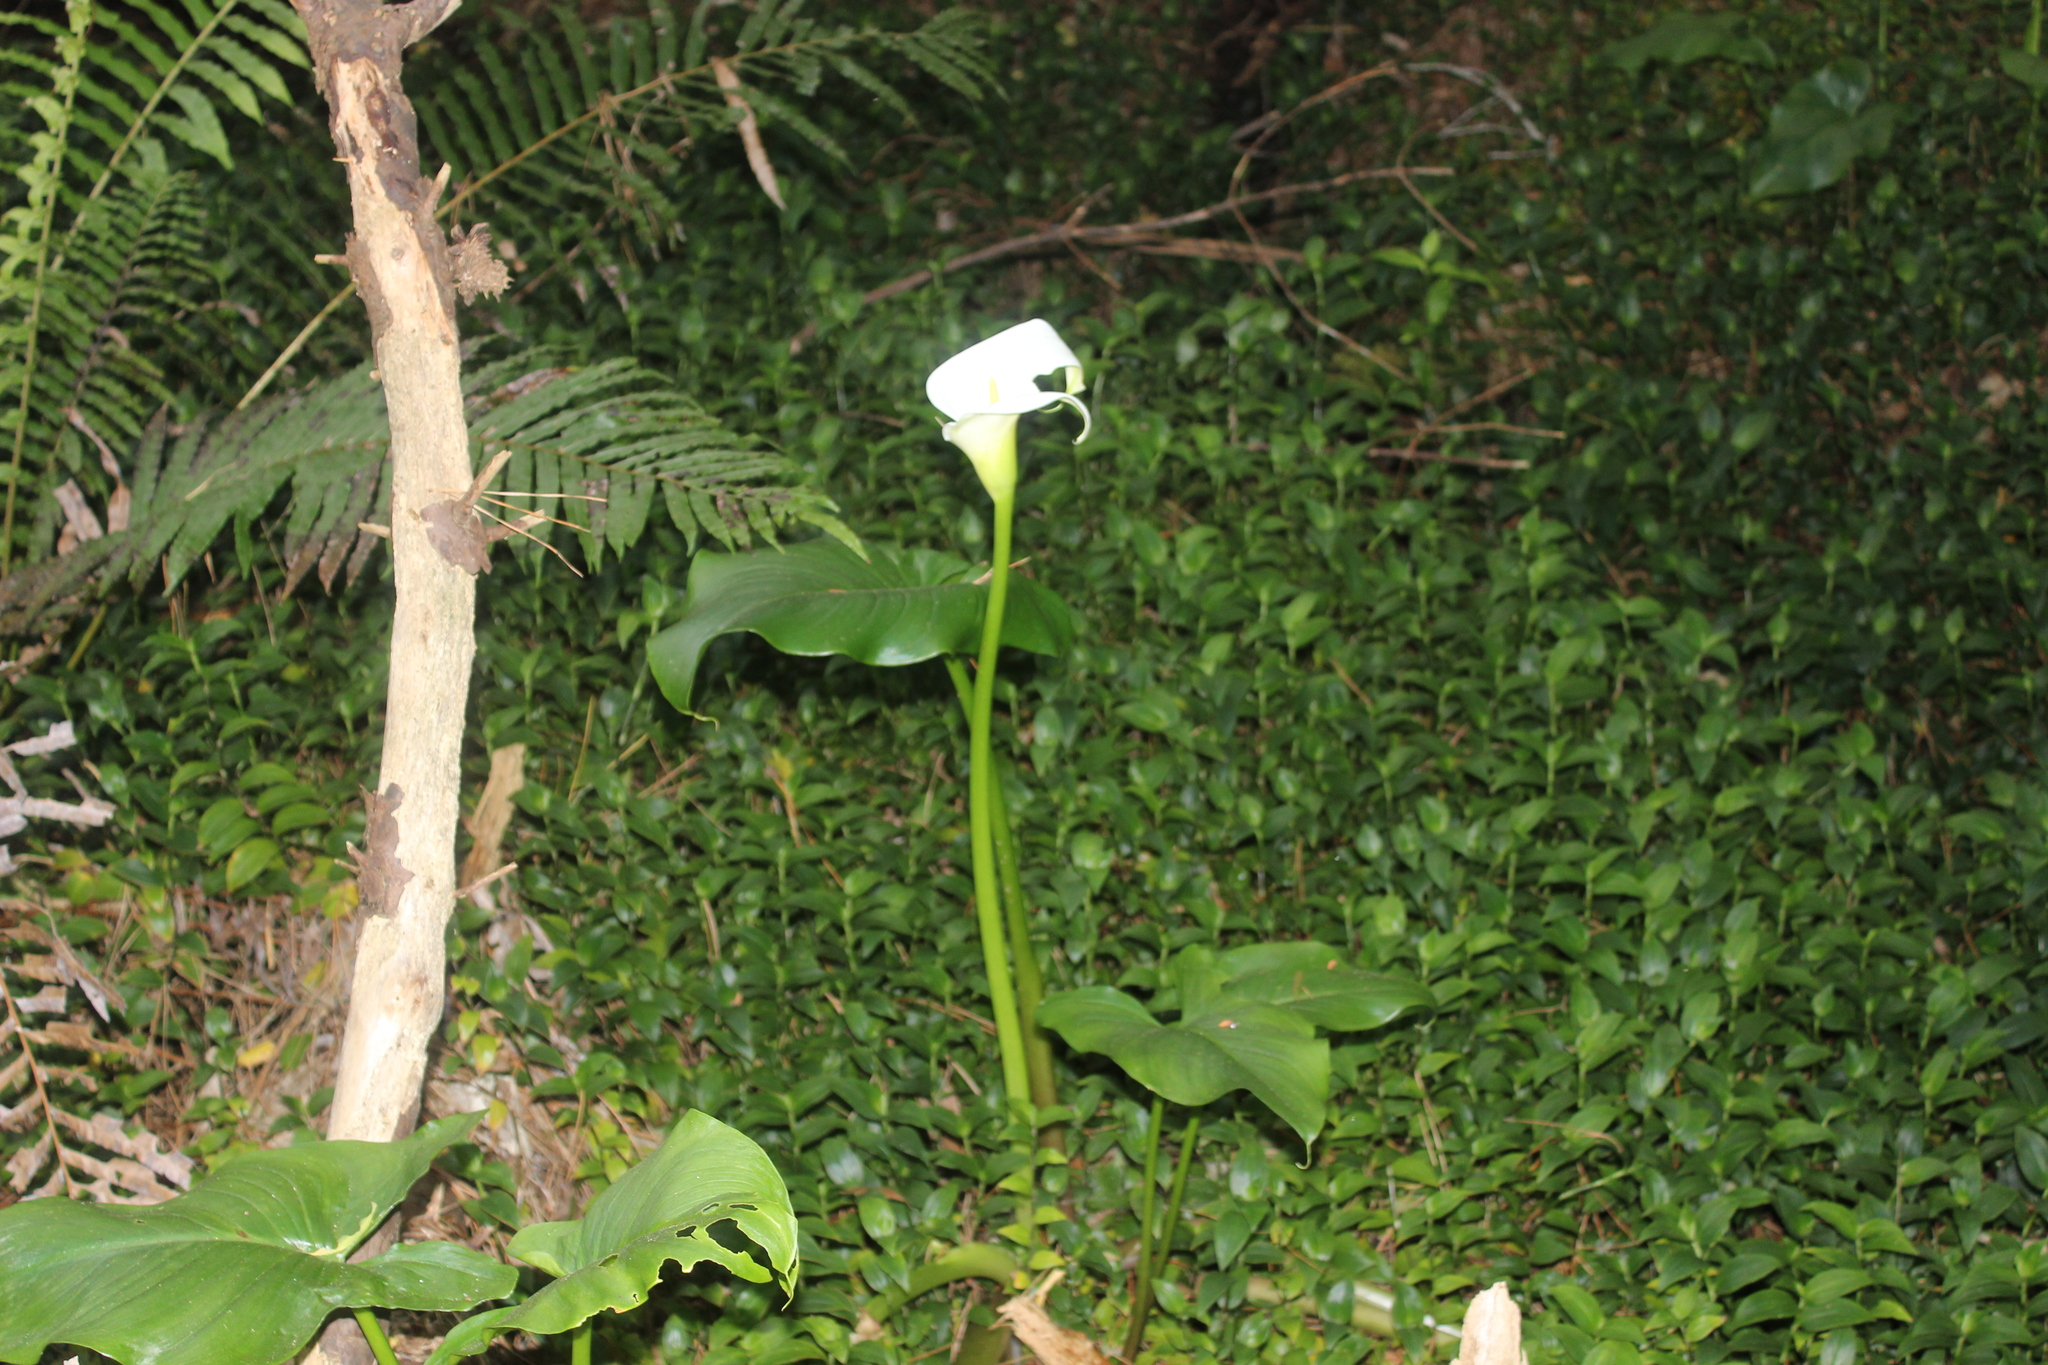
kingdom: Plantae
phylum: Tracheophyta
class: Liliopsida
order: Alismatales
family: Araceae
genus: Zantedeschia
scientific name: Zantedeschia aethiopica
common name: Altar-lily
